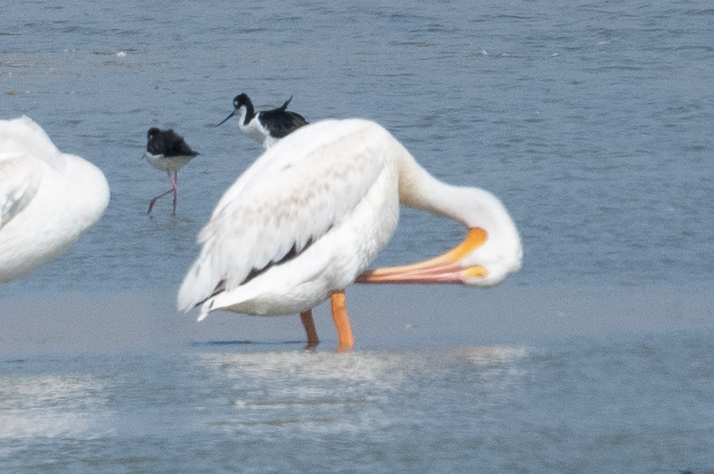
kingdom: Animalia
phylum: Chordata
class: Aves
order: Pelecaniformes
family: Pelecanidae
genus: Pelecanus
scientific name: Pelecanus erythrorhynchos
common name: American white pelican
